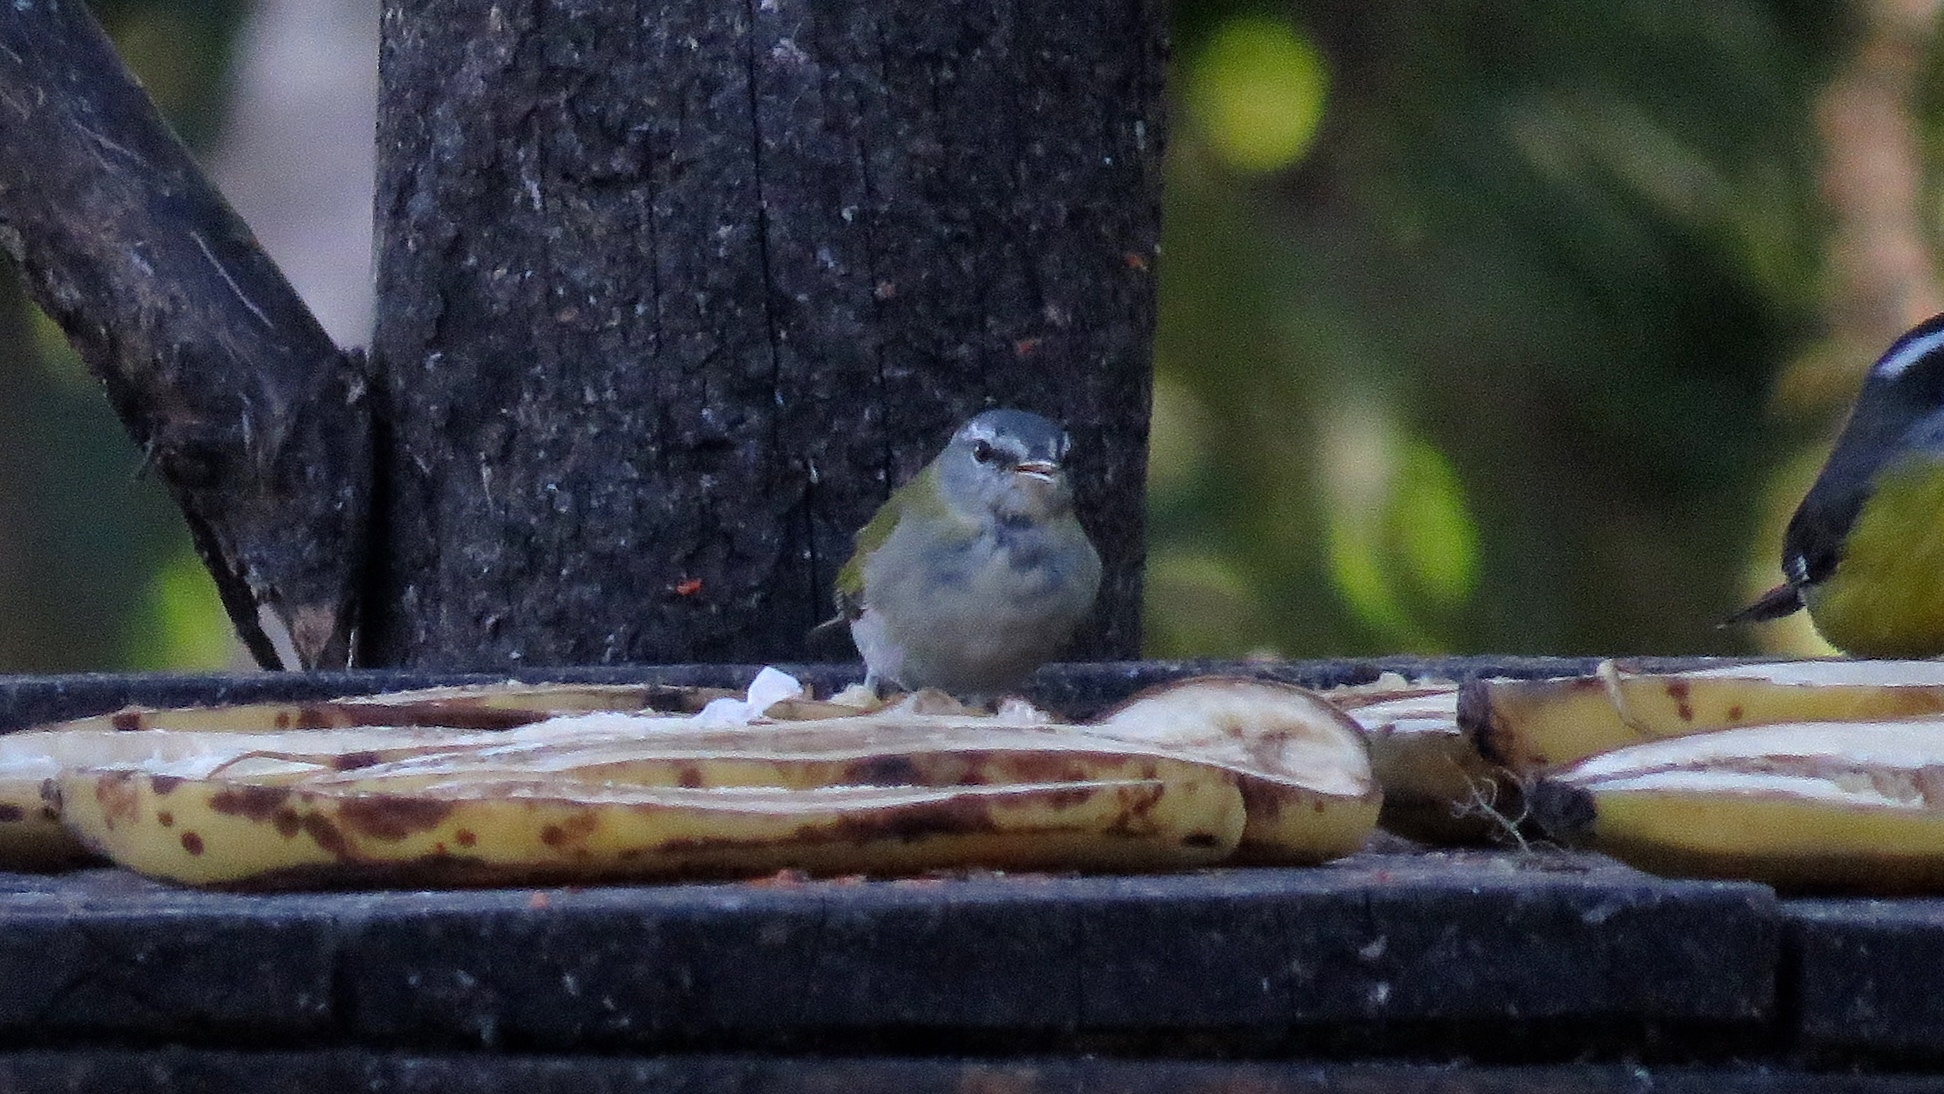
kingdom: Animalia
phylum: Chordata
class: Aves
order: Passeriformes
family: Parulidae
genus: Leiothlypis
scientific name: Leiothlypis peregrina
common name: Tennessee warbler
